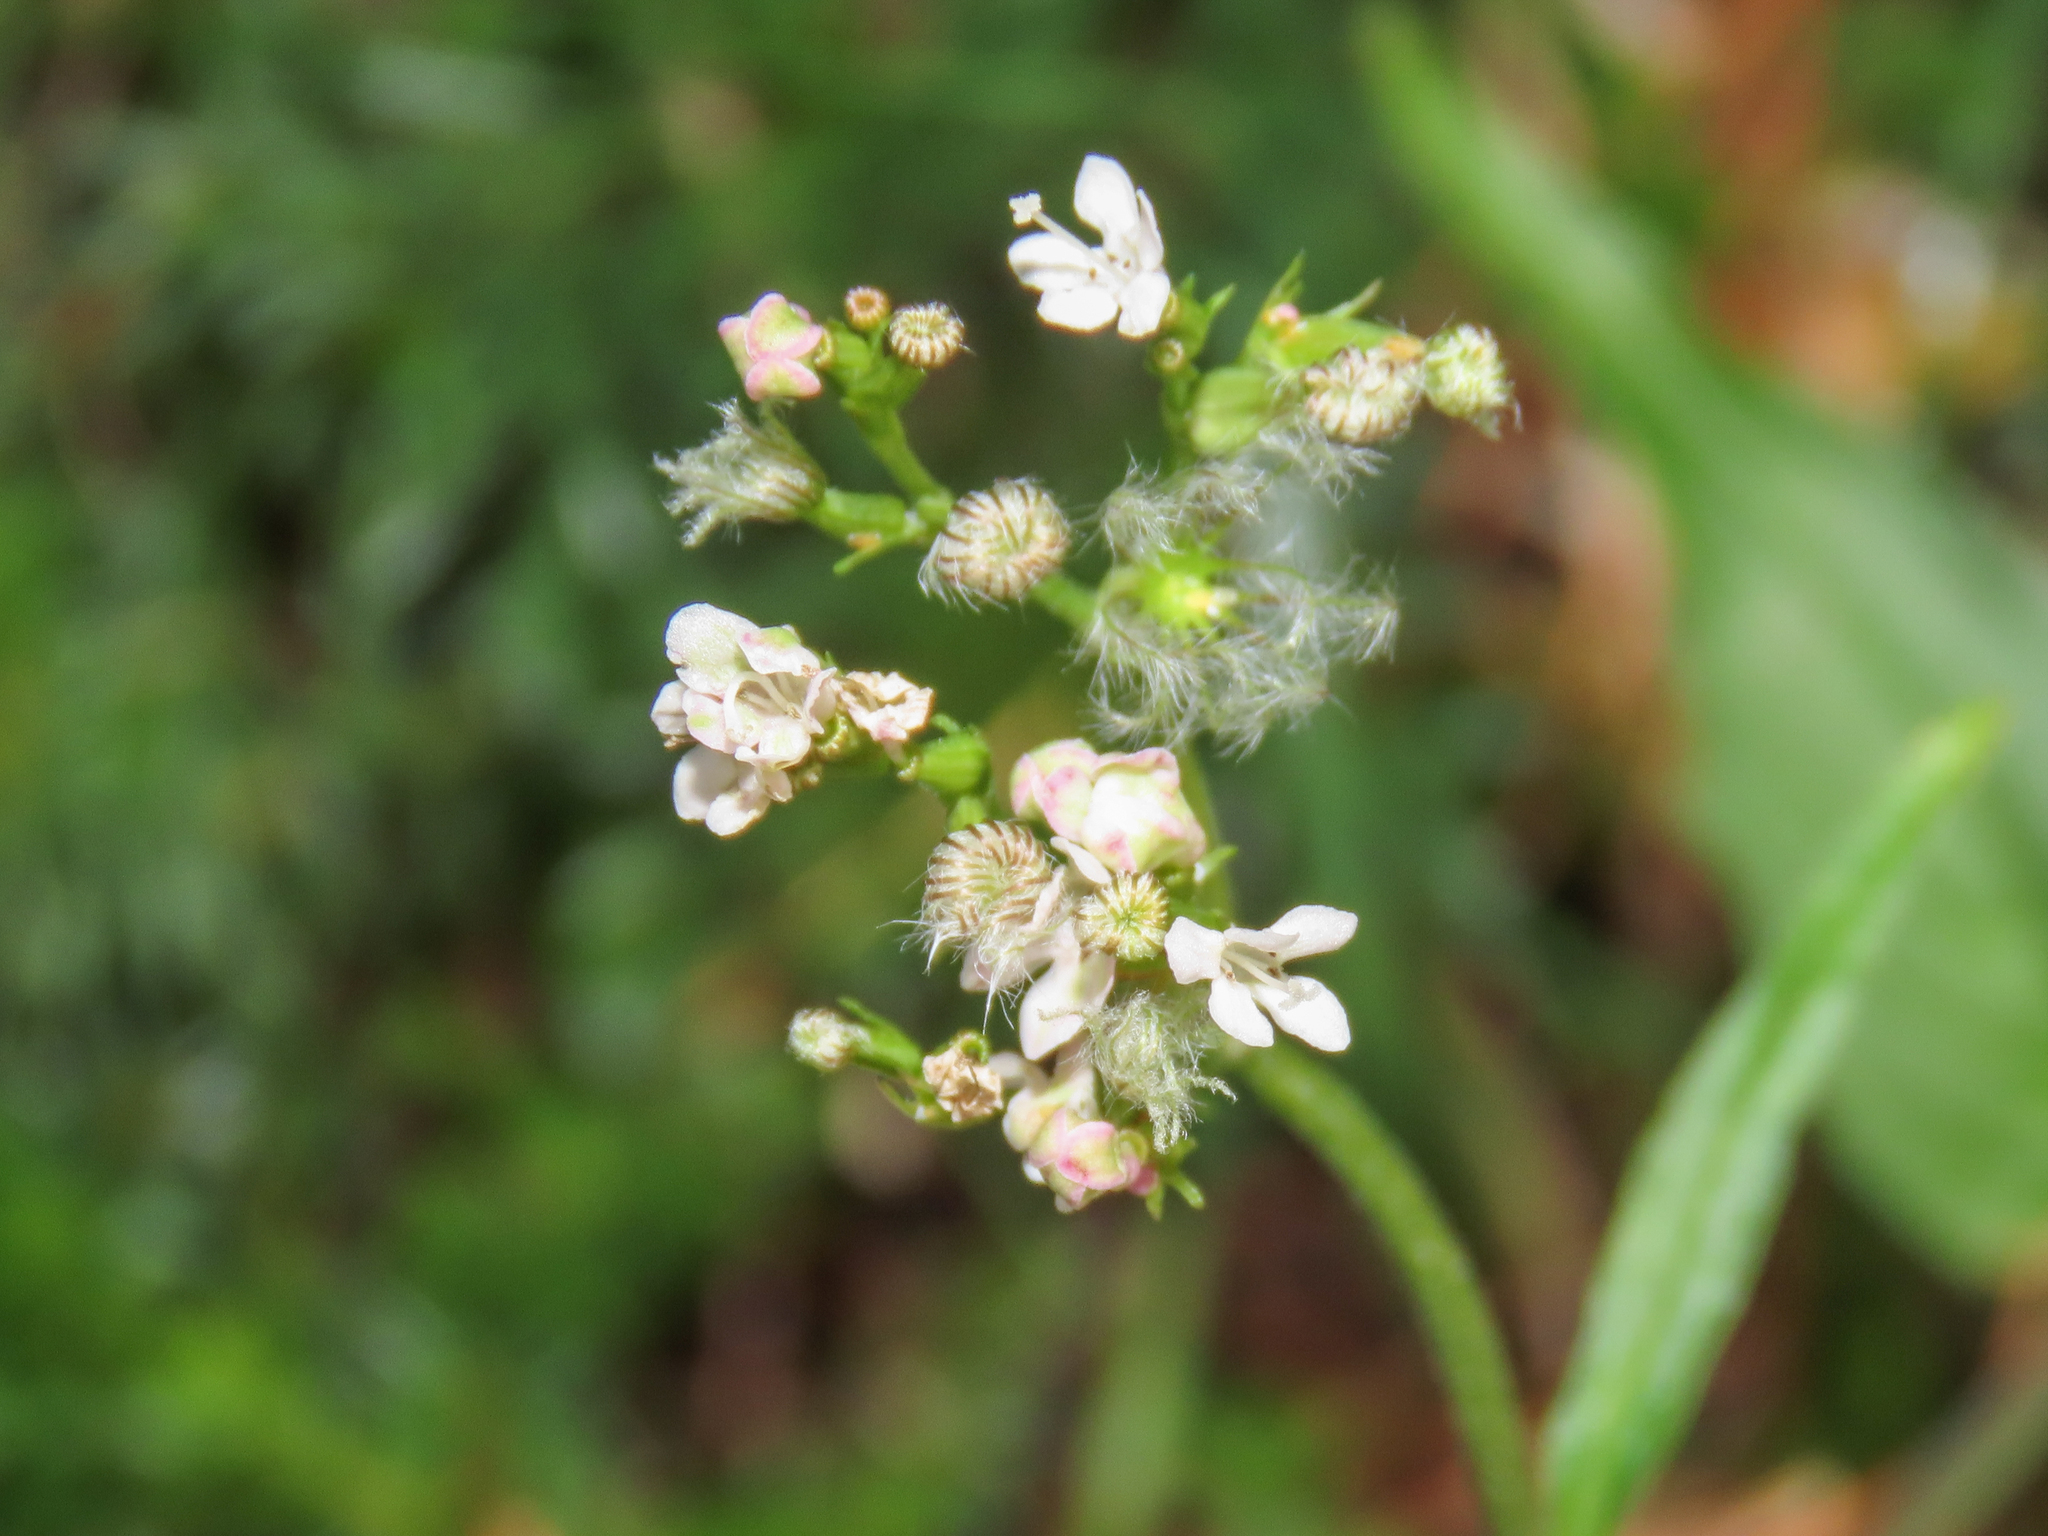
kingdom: Plantae
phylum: Tracheophyta
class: Magnoliopsida
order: Dipsacales
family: Caprifoliaceae
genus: Valeriana
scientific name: Valeriana montana
